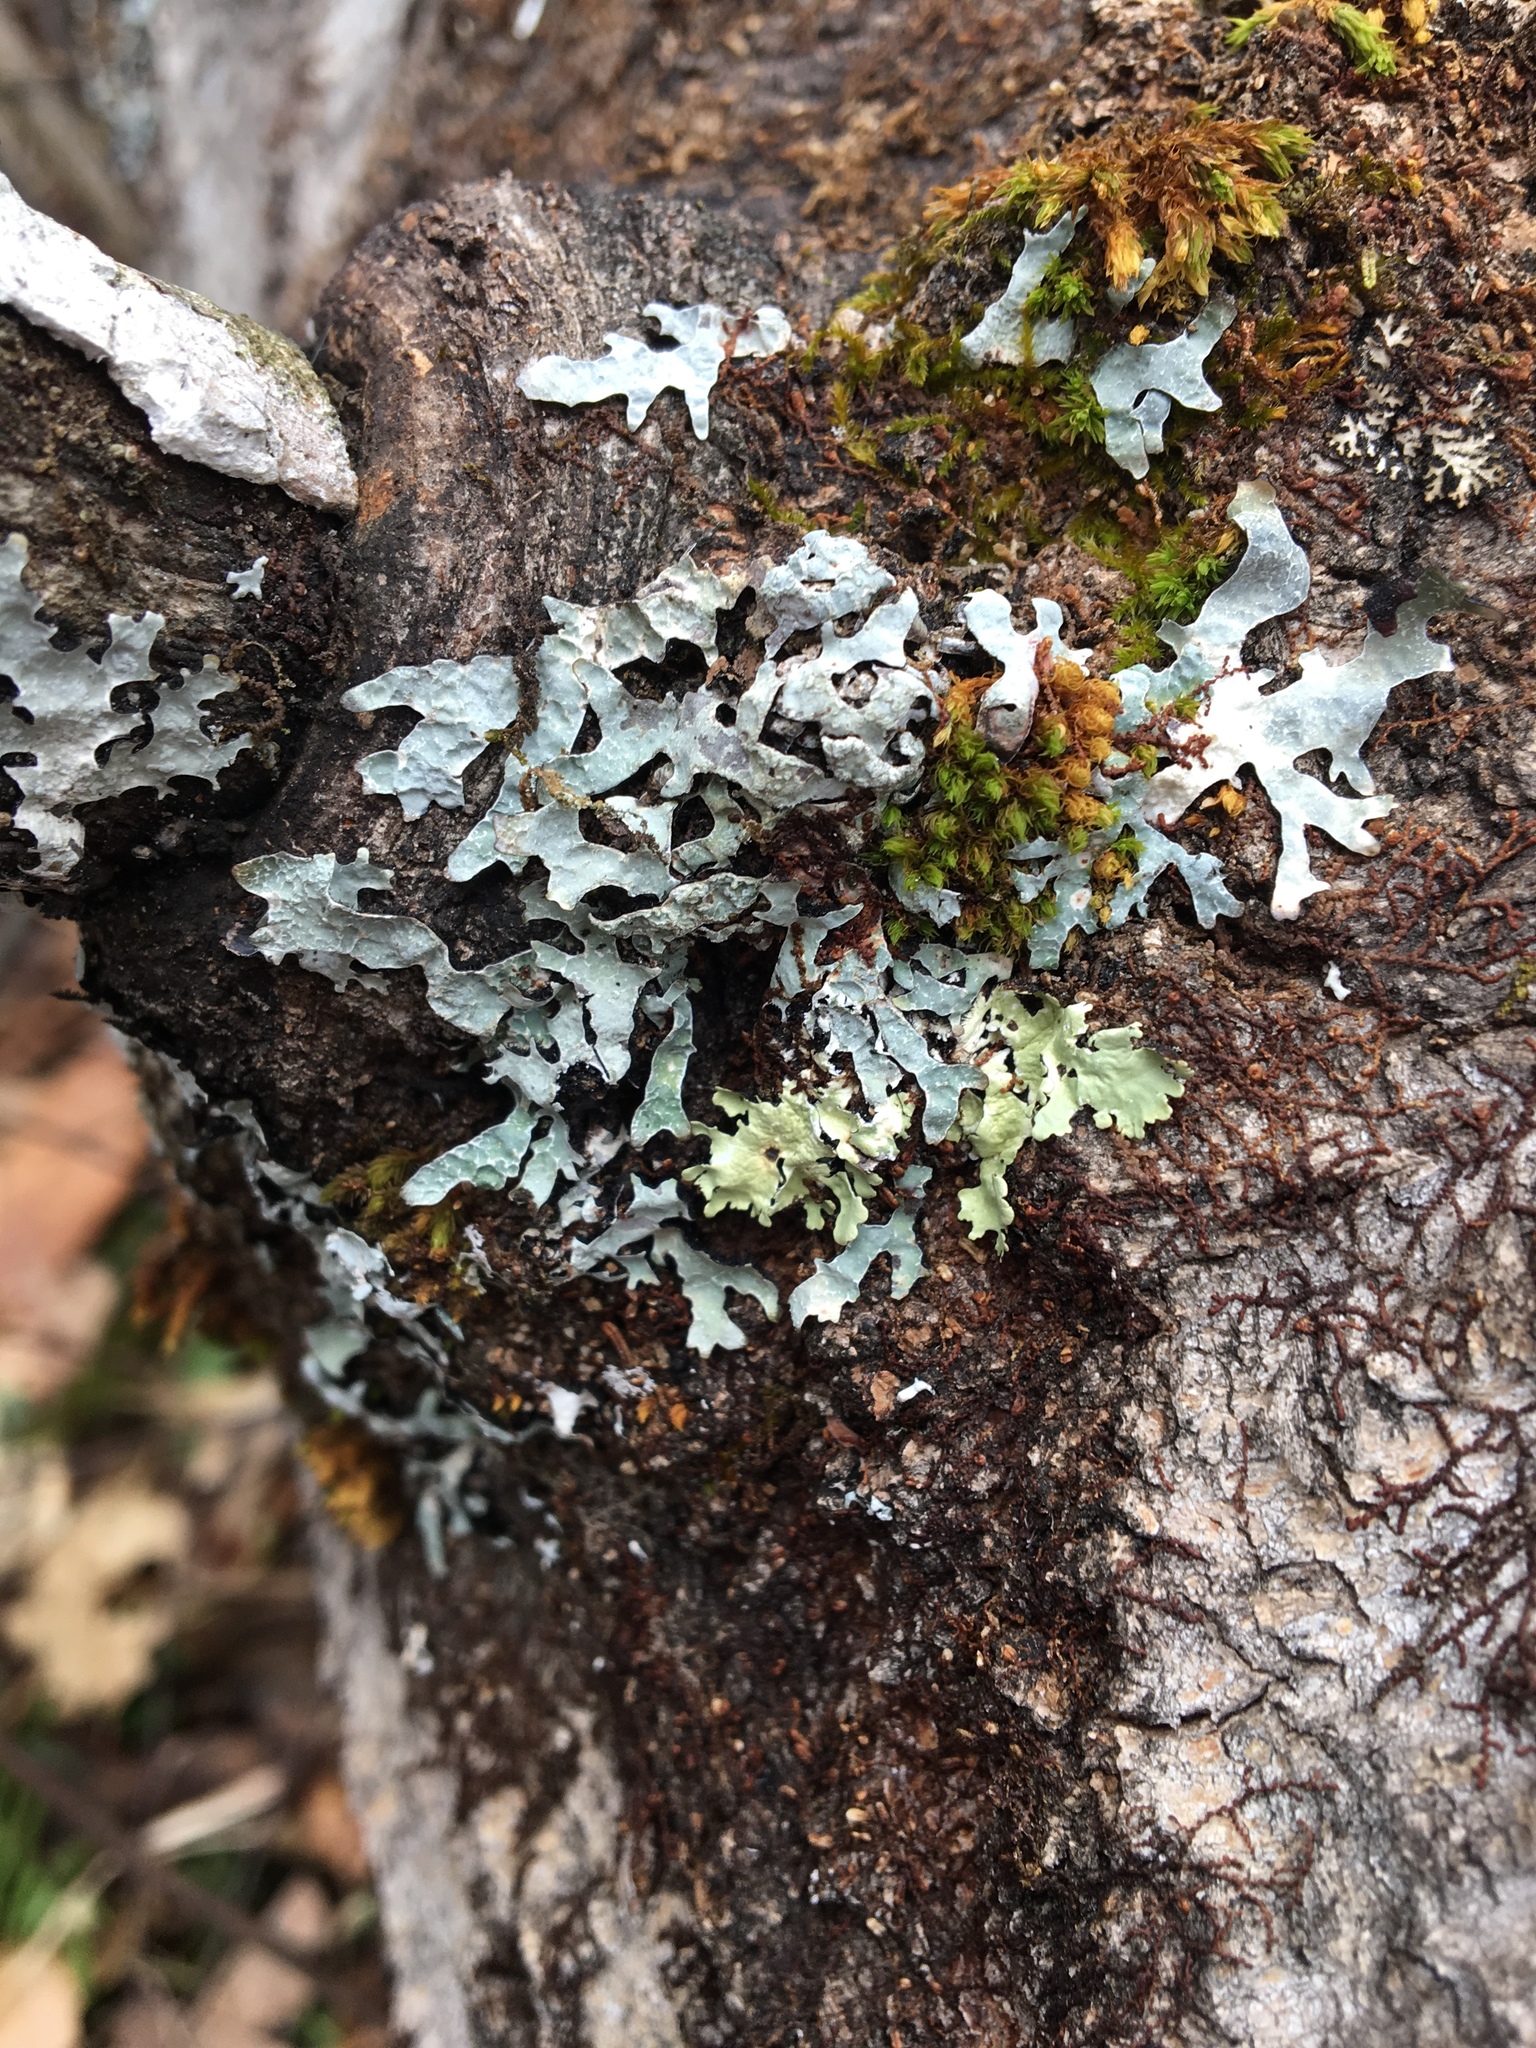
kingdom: Fungi
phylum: Ascomycota
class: Lecanoromycetes
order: Lecanorales
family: Parmeliaceae
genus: Parmelia
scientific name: Parmelia sulcata
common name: Netted shield lichen
